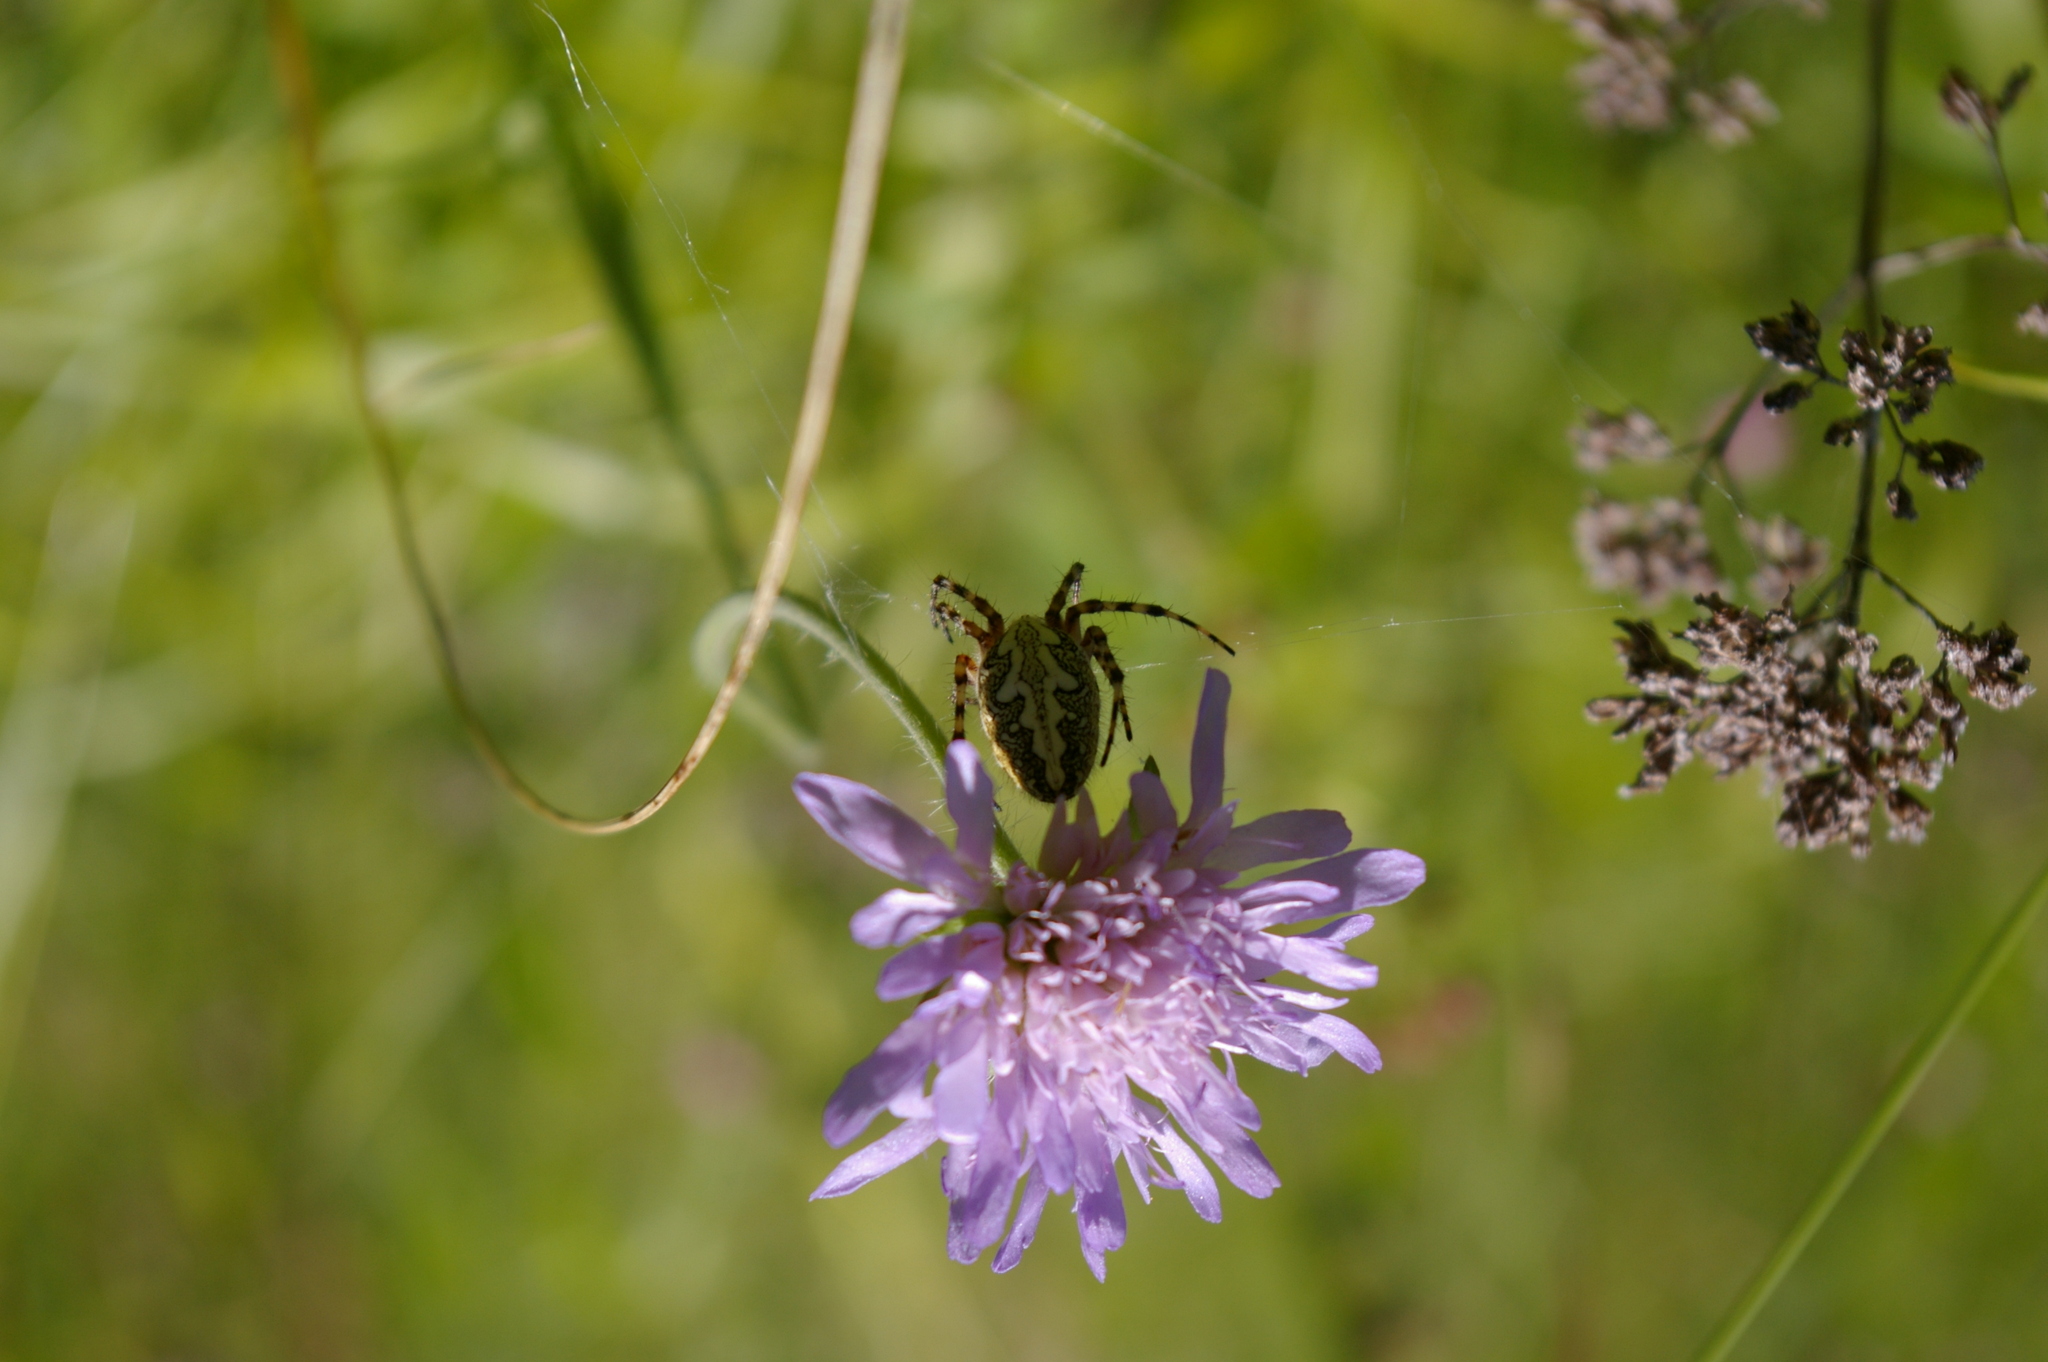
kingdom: Animalia
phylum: Arthropoda
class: Arachnida
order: Araneae
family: Araneidae
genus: Aculepeira
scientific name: Aculepeira ceropegia
